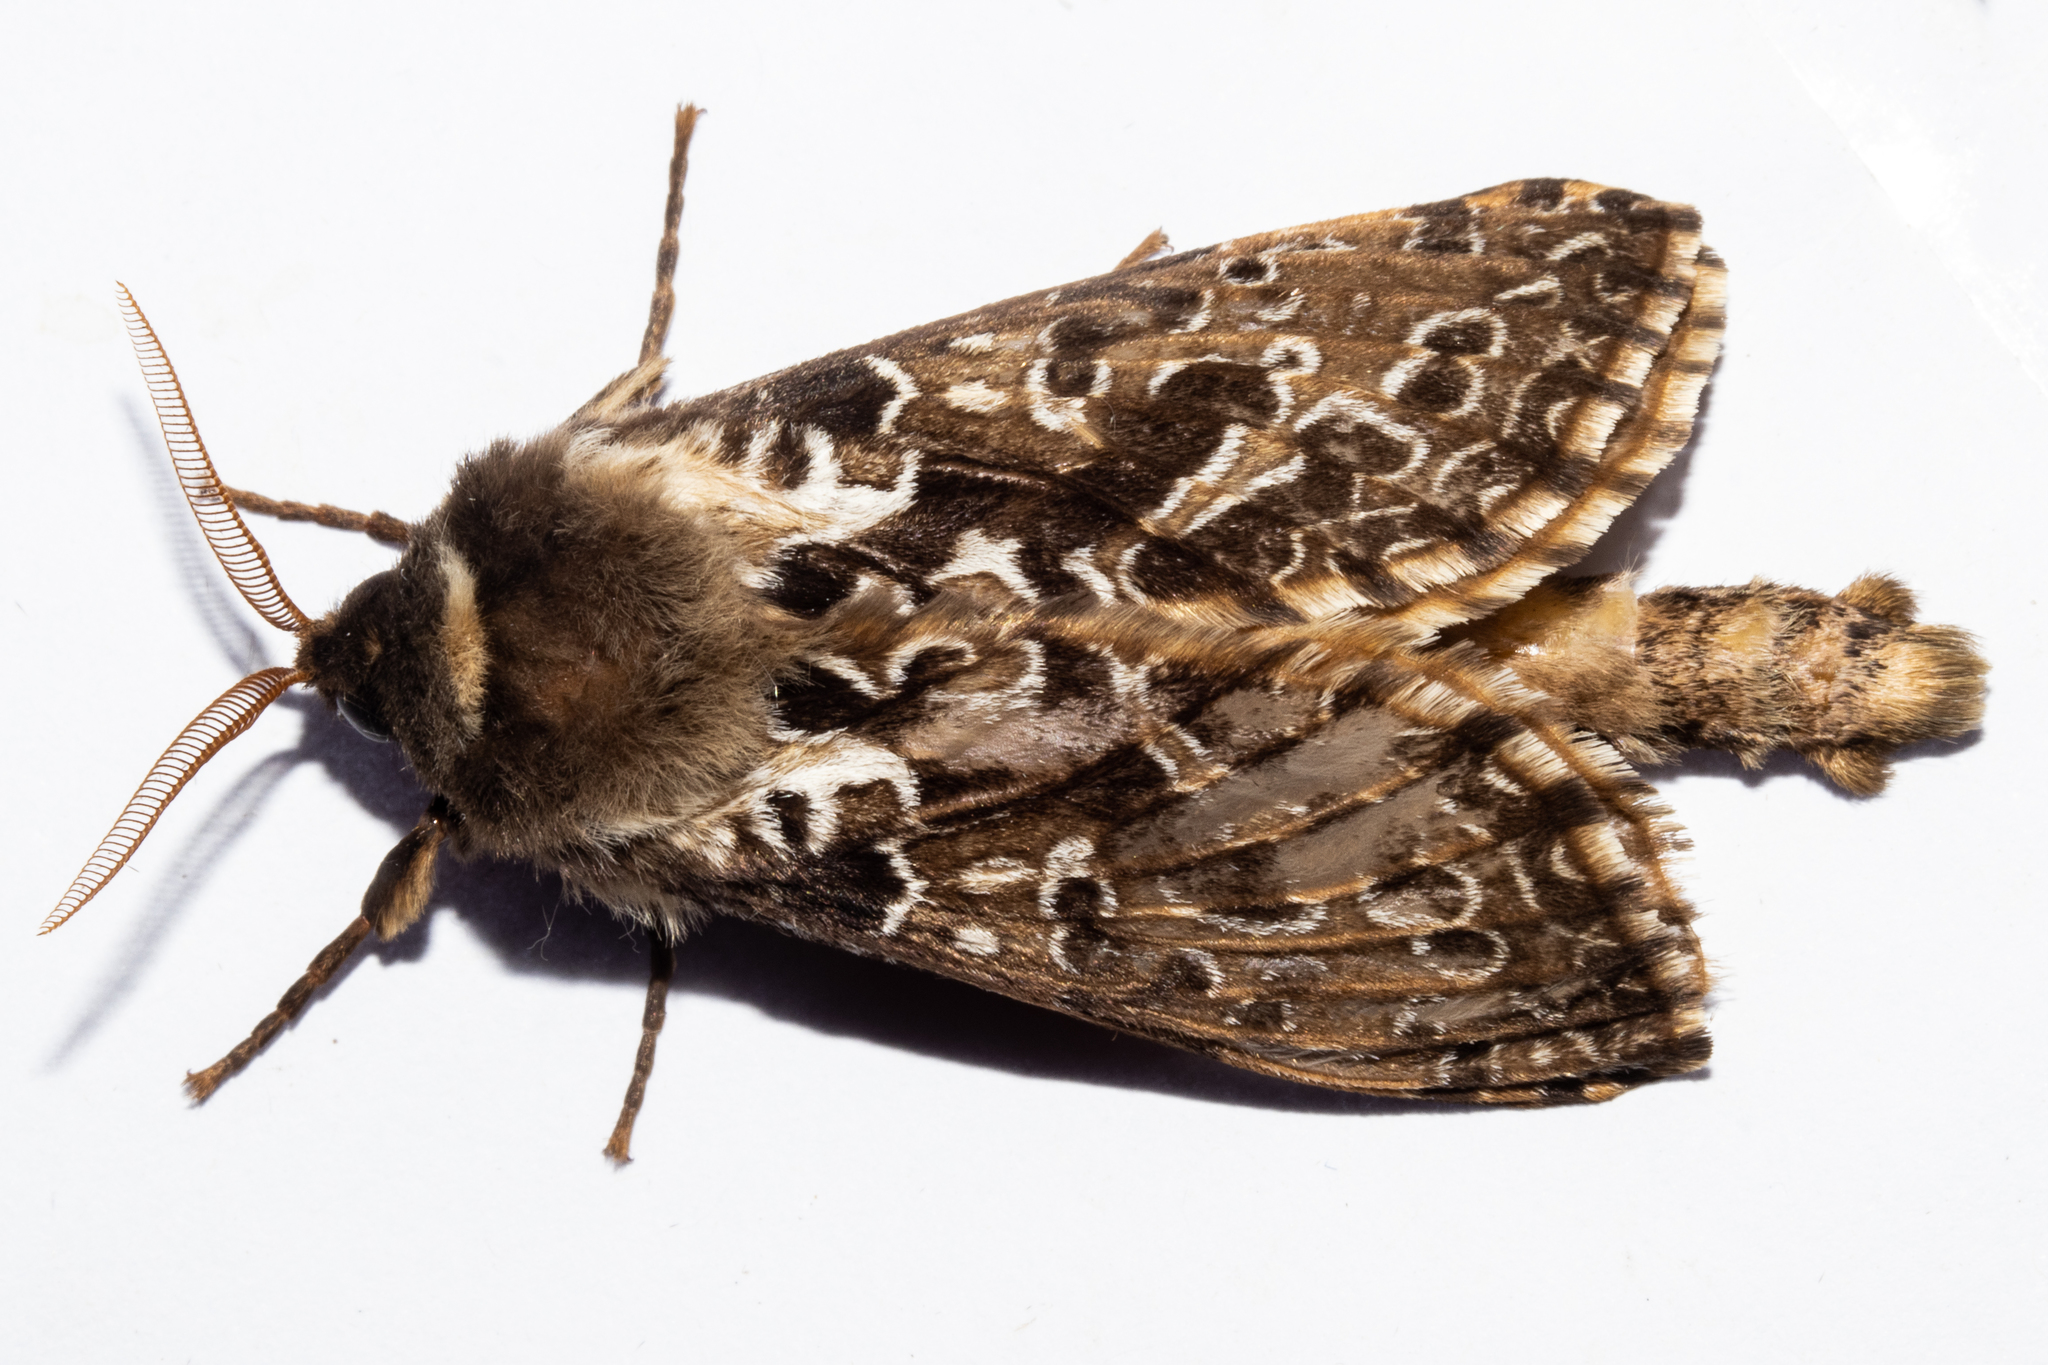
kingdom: Animalia
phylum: Arthropoda
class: Insecta
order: Lepidoptera
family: Hepialidae
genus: Aoraia
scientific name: Aoraia rufivena
